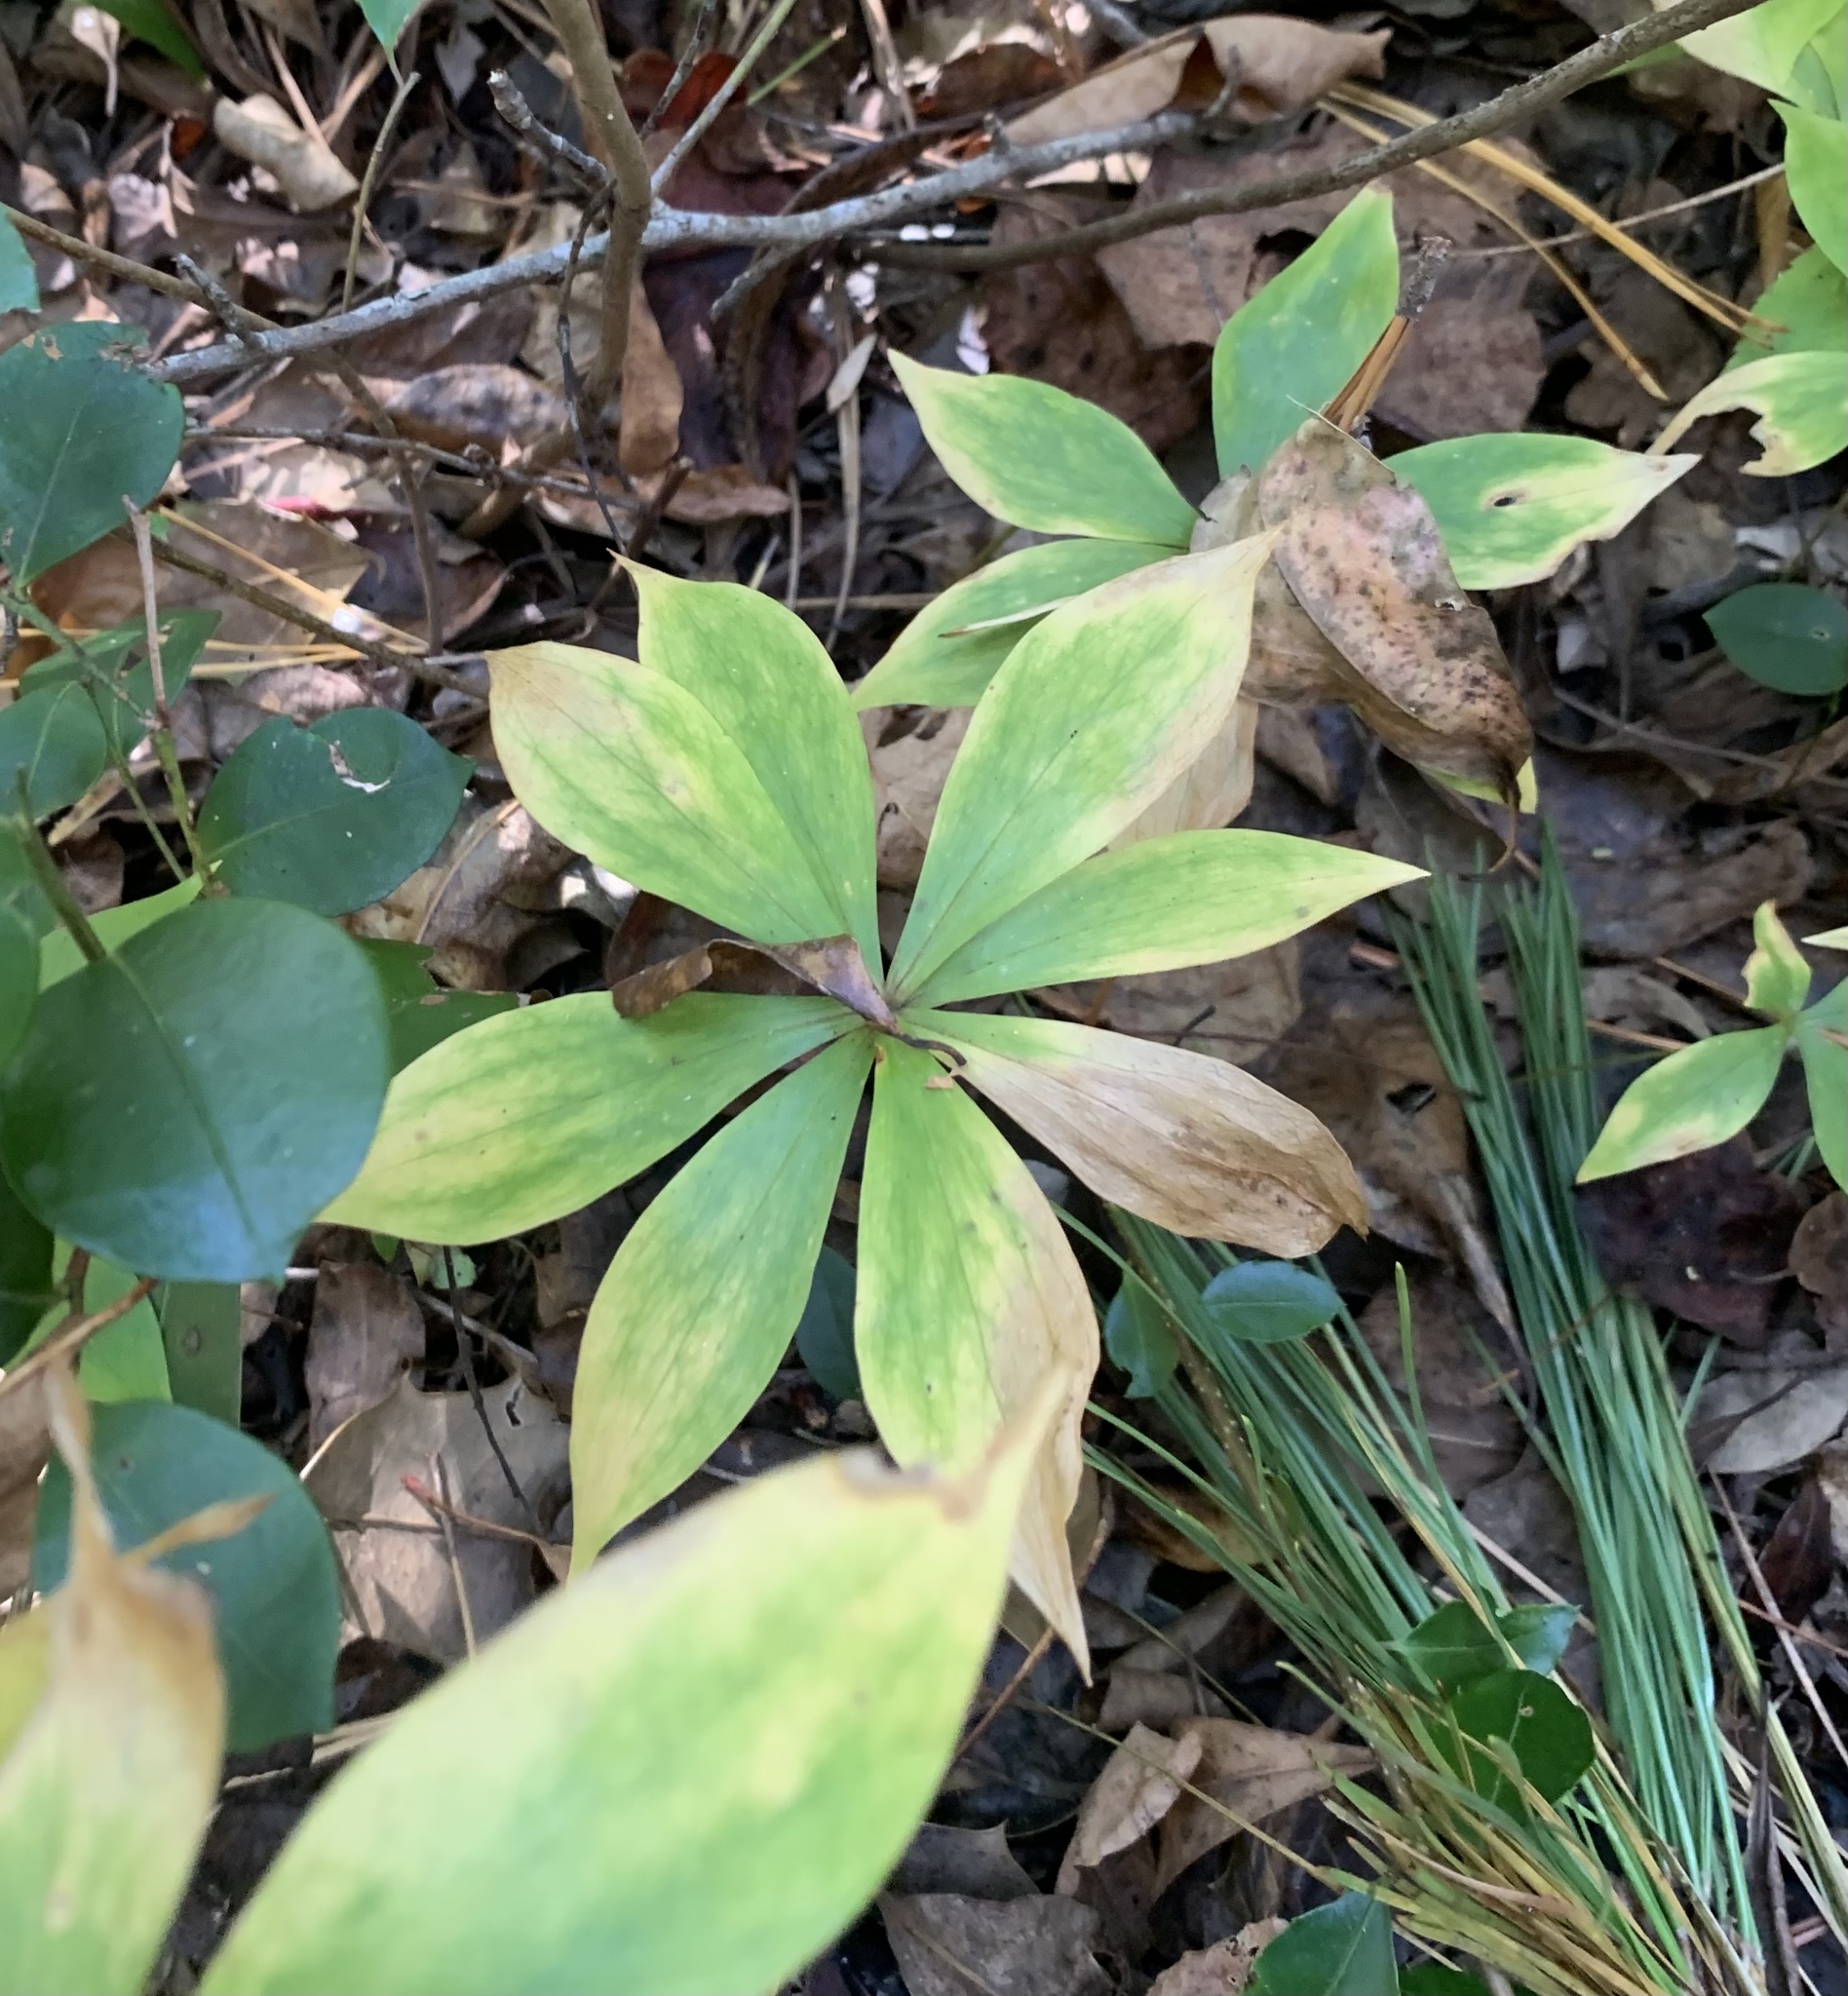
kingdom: Plantae
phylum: Tracheophyta
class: Liliopsida
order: Liliales
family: Liliaceae
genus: Medeola
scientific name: Medeola virginiana
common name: Indian cucumber-root
